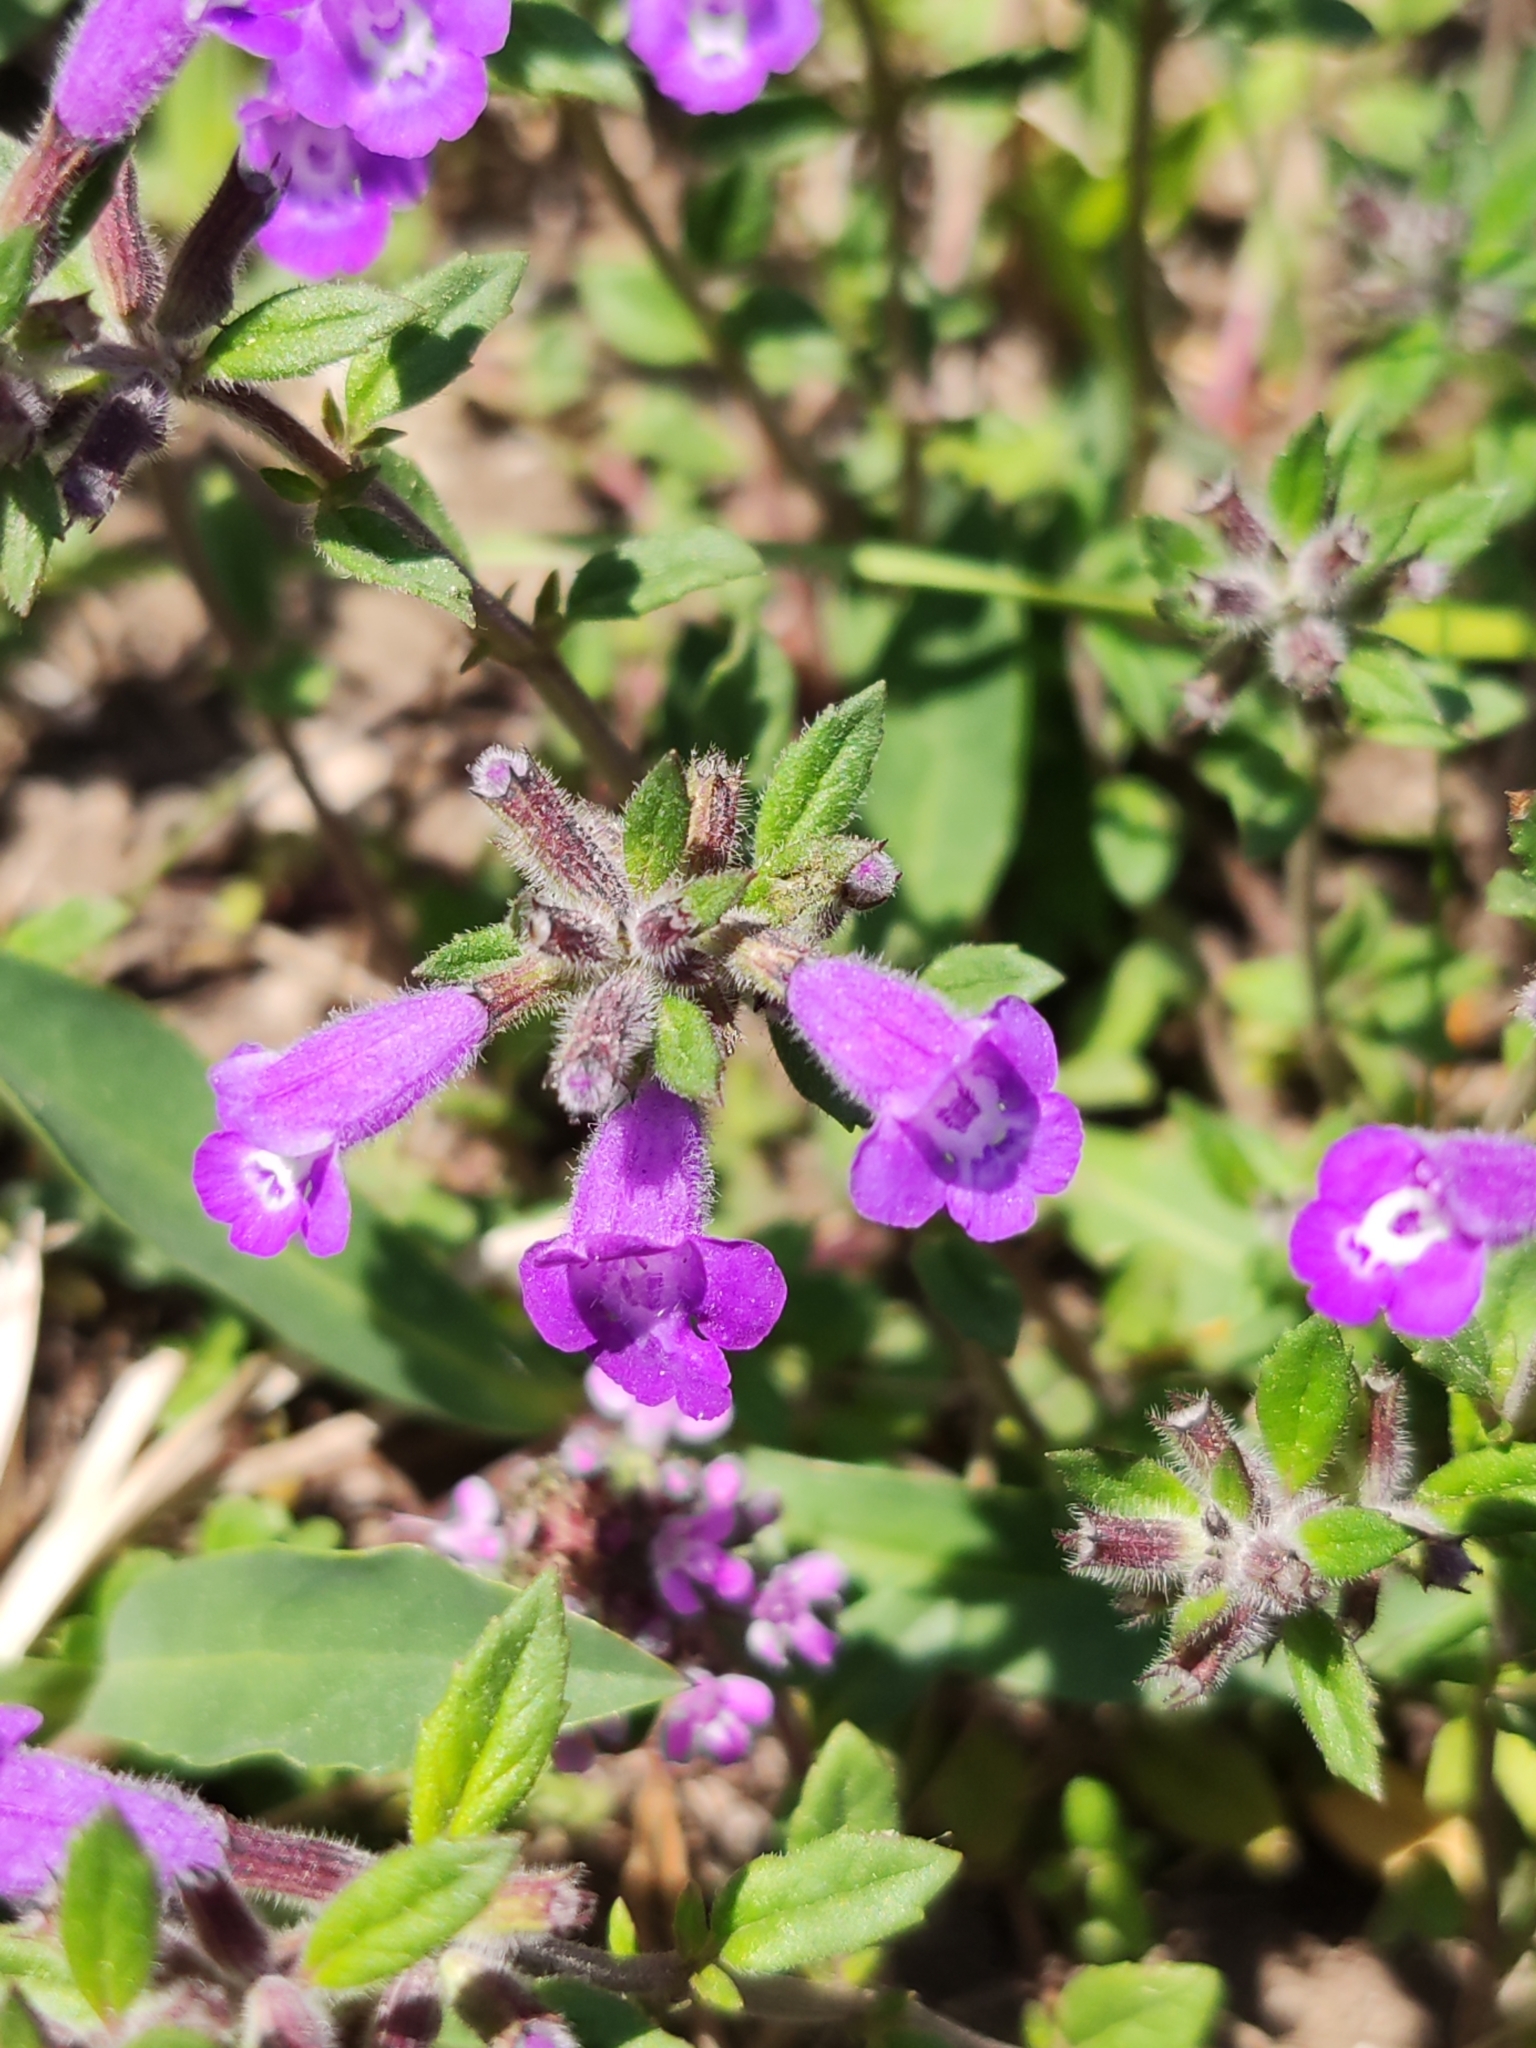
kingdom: Plantae
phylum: Tracheophyta
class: Magnoliopsida
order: Lamiales
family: Lamiaceae
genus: Clinopodium
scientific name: Clinopodium alpinum
